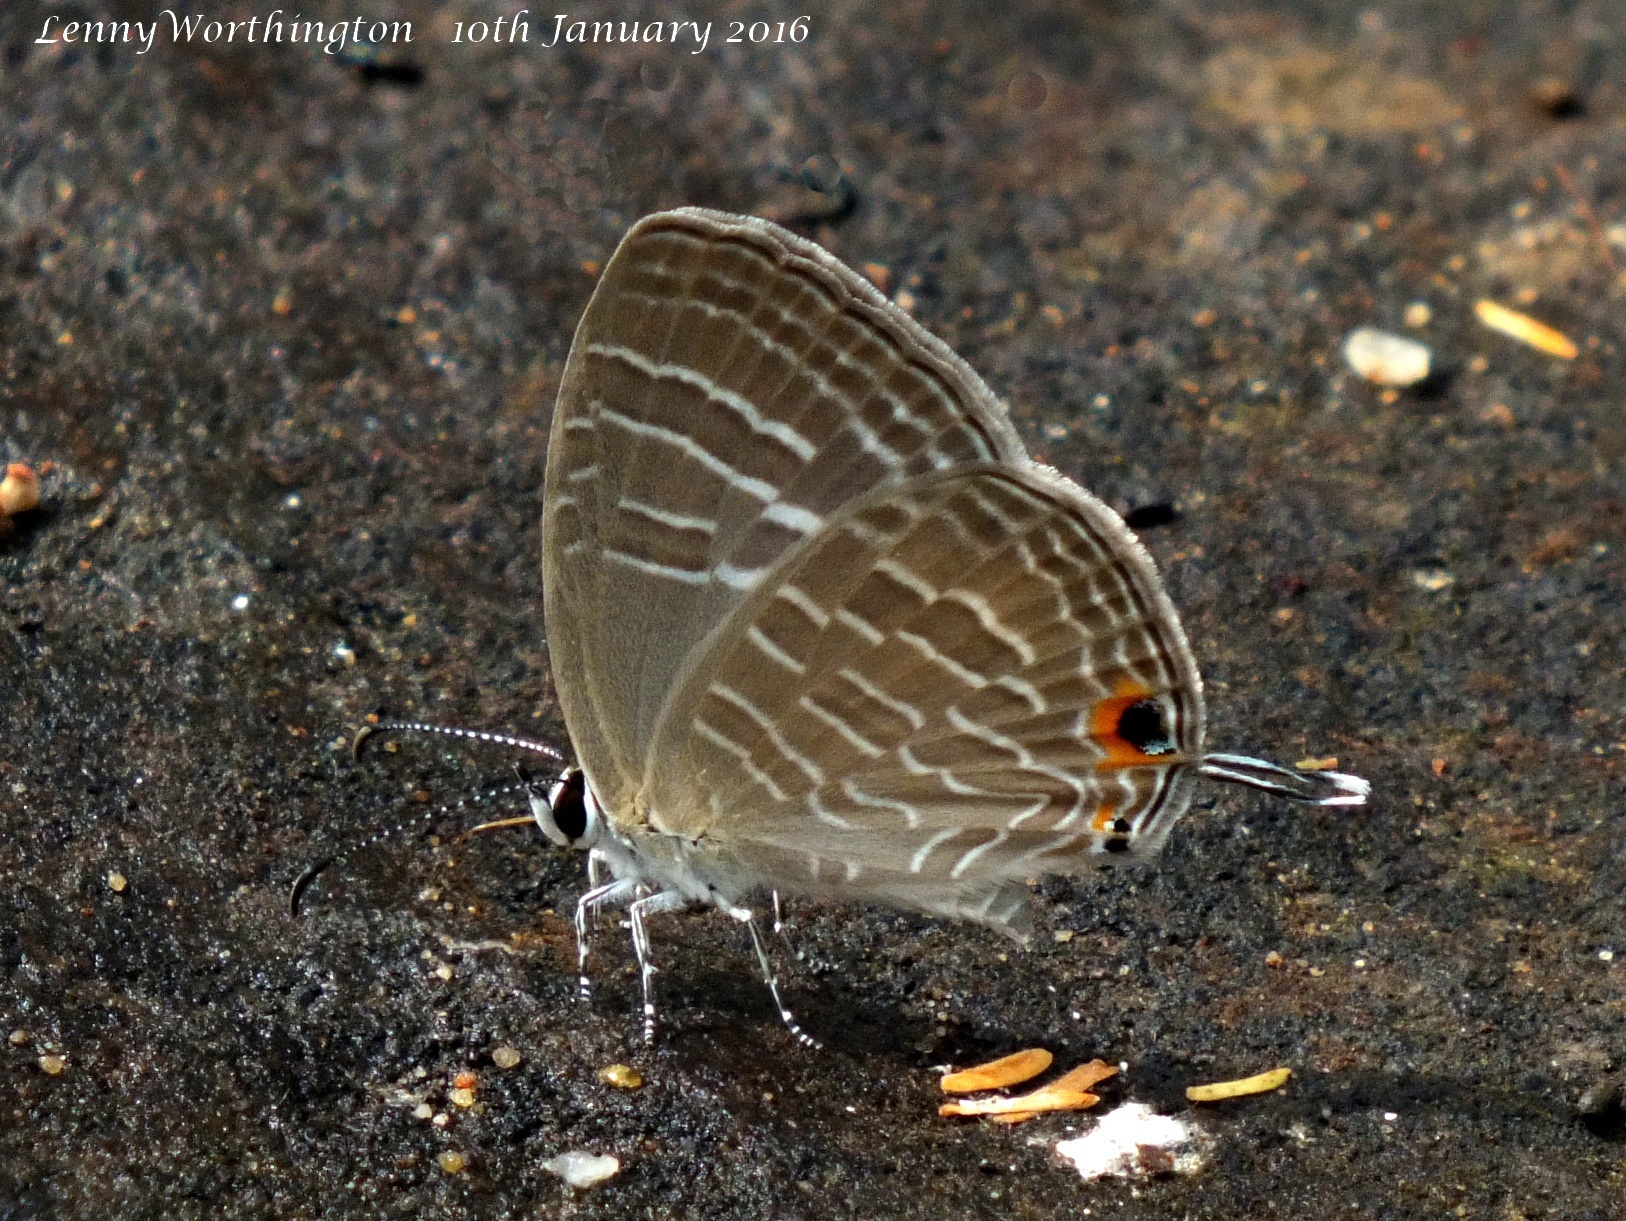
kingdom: Animalia
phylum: Arthropoda
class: Insecta
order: Lepidoptera
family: Lycaenidae
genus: Jamides
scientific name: Jamides celeno
